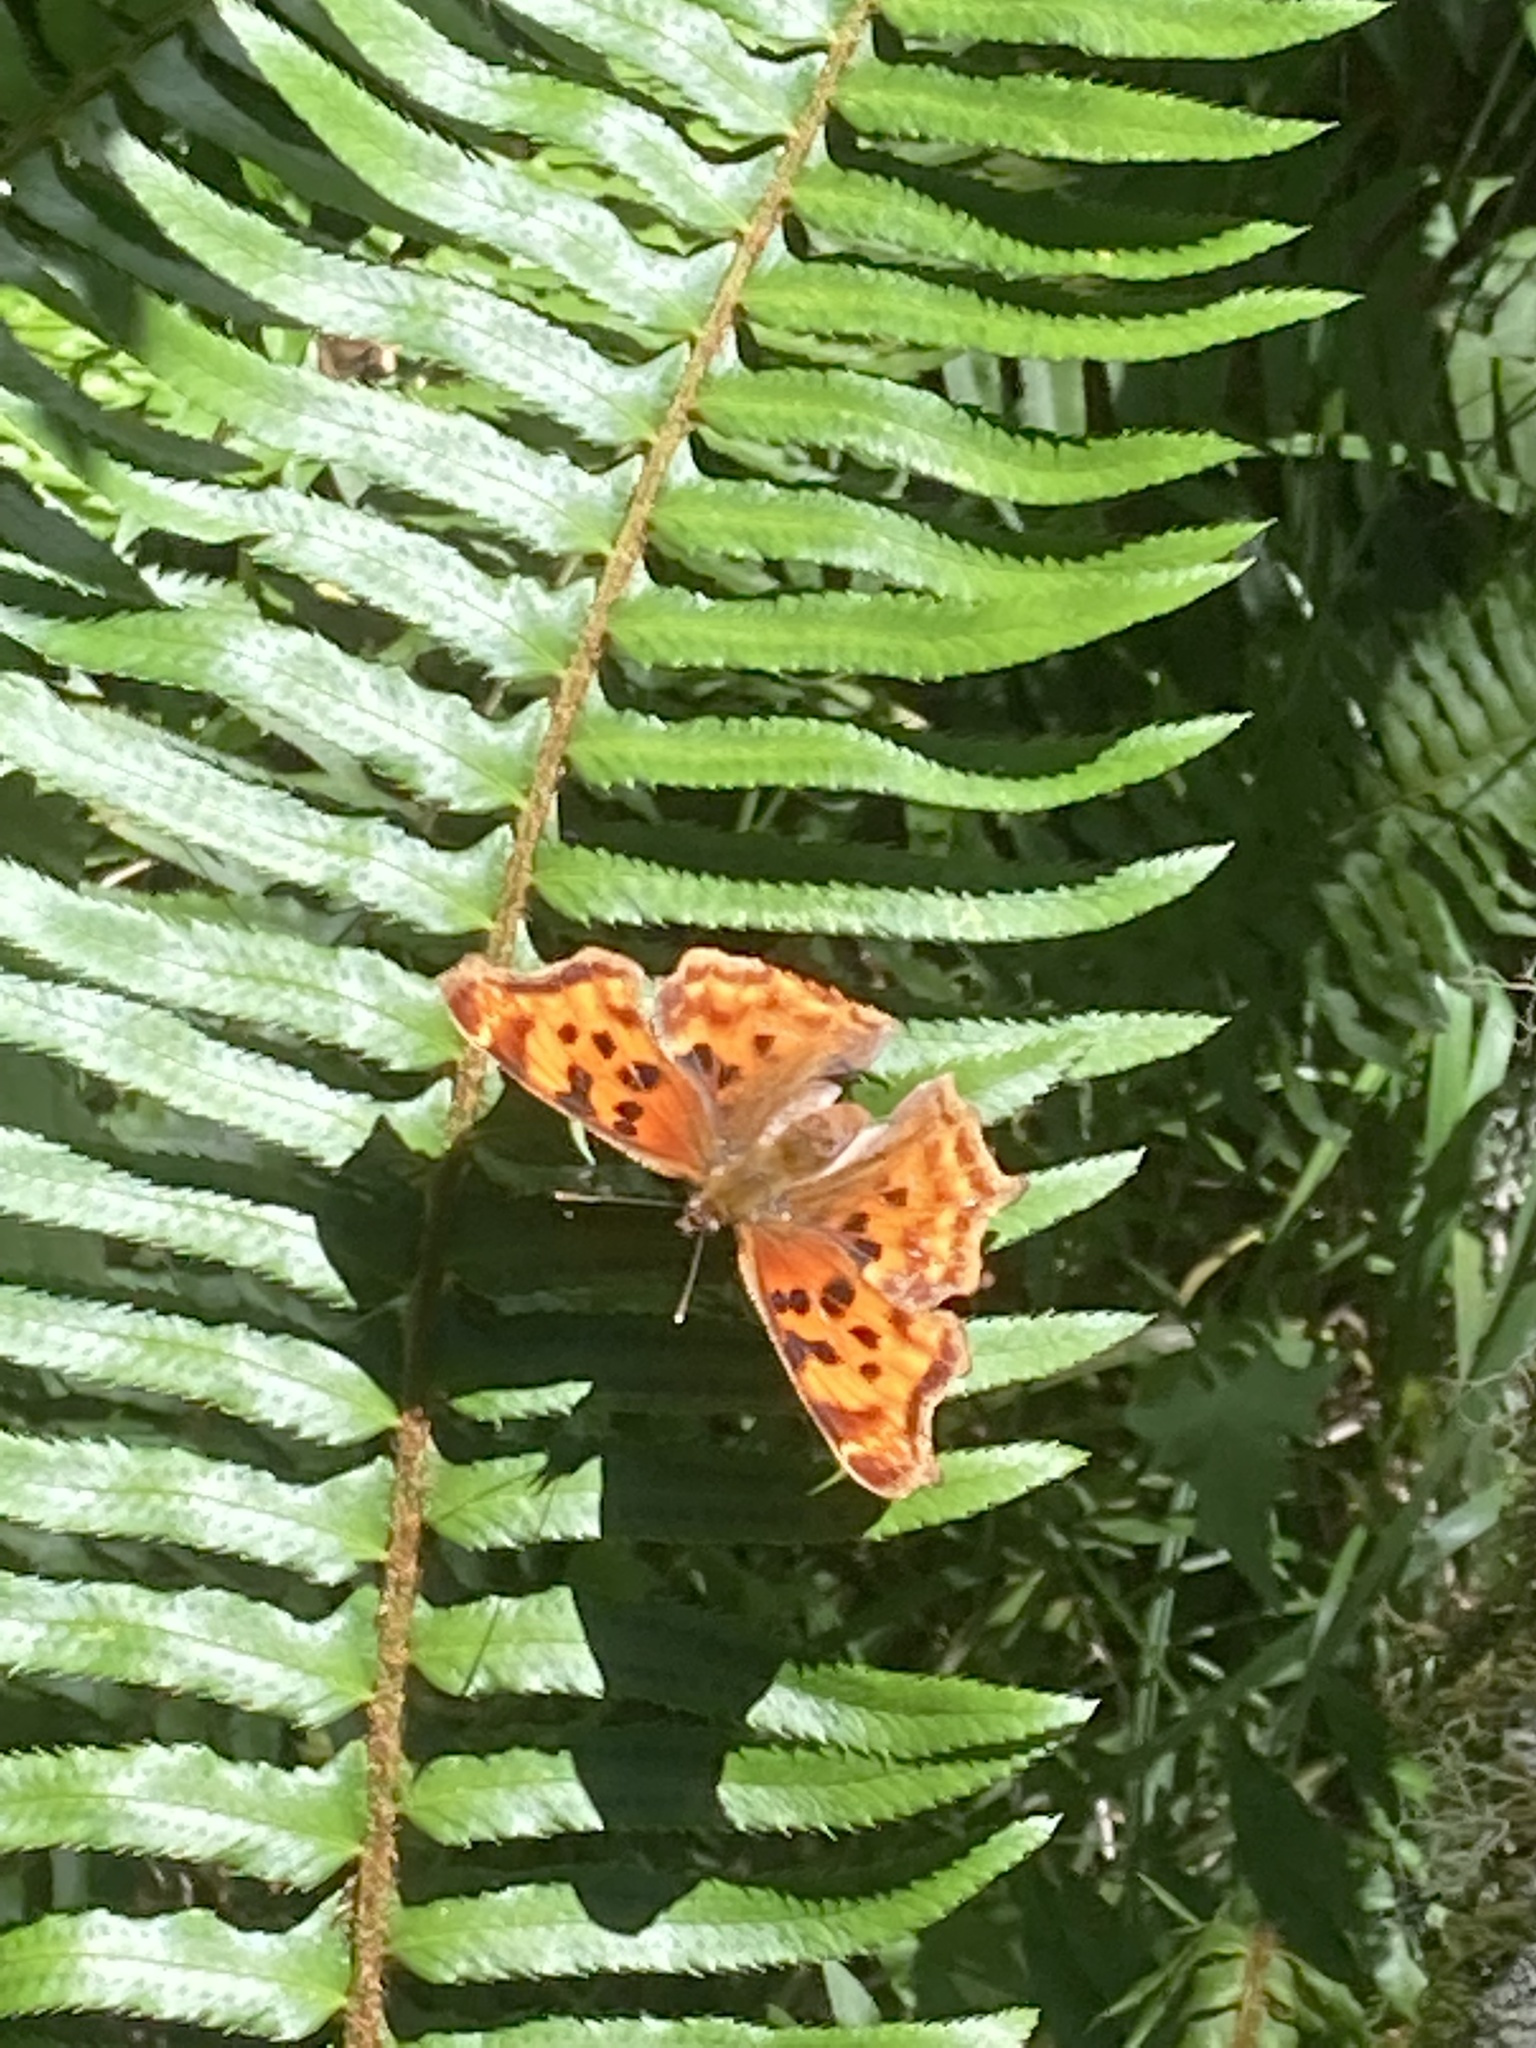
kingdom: Animalia
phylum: Arthropoda
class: Insecta
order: Lepidoptera
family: Nymphalidae
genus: Polygonia
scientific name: Polygonia satyrus
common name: Satyr angle wing
